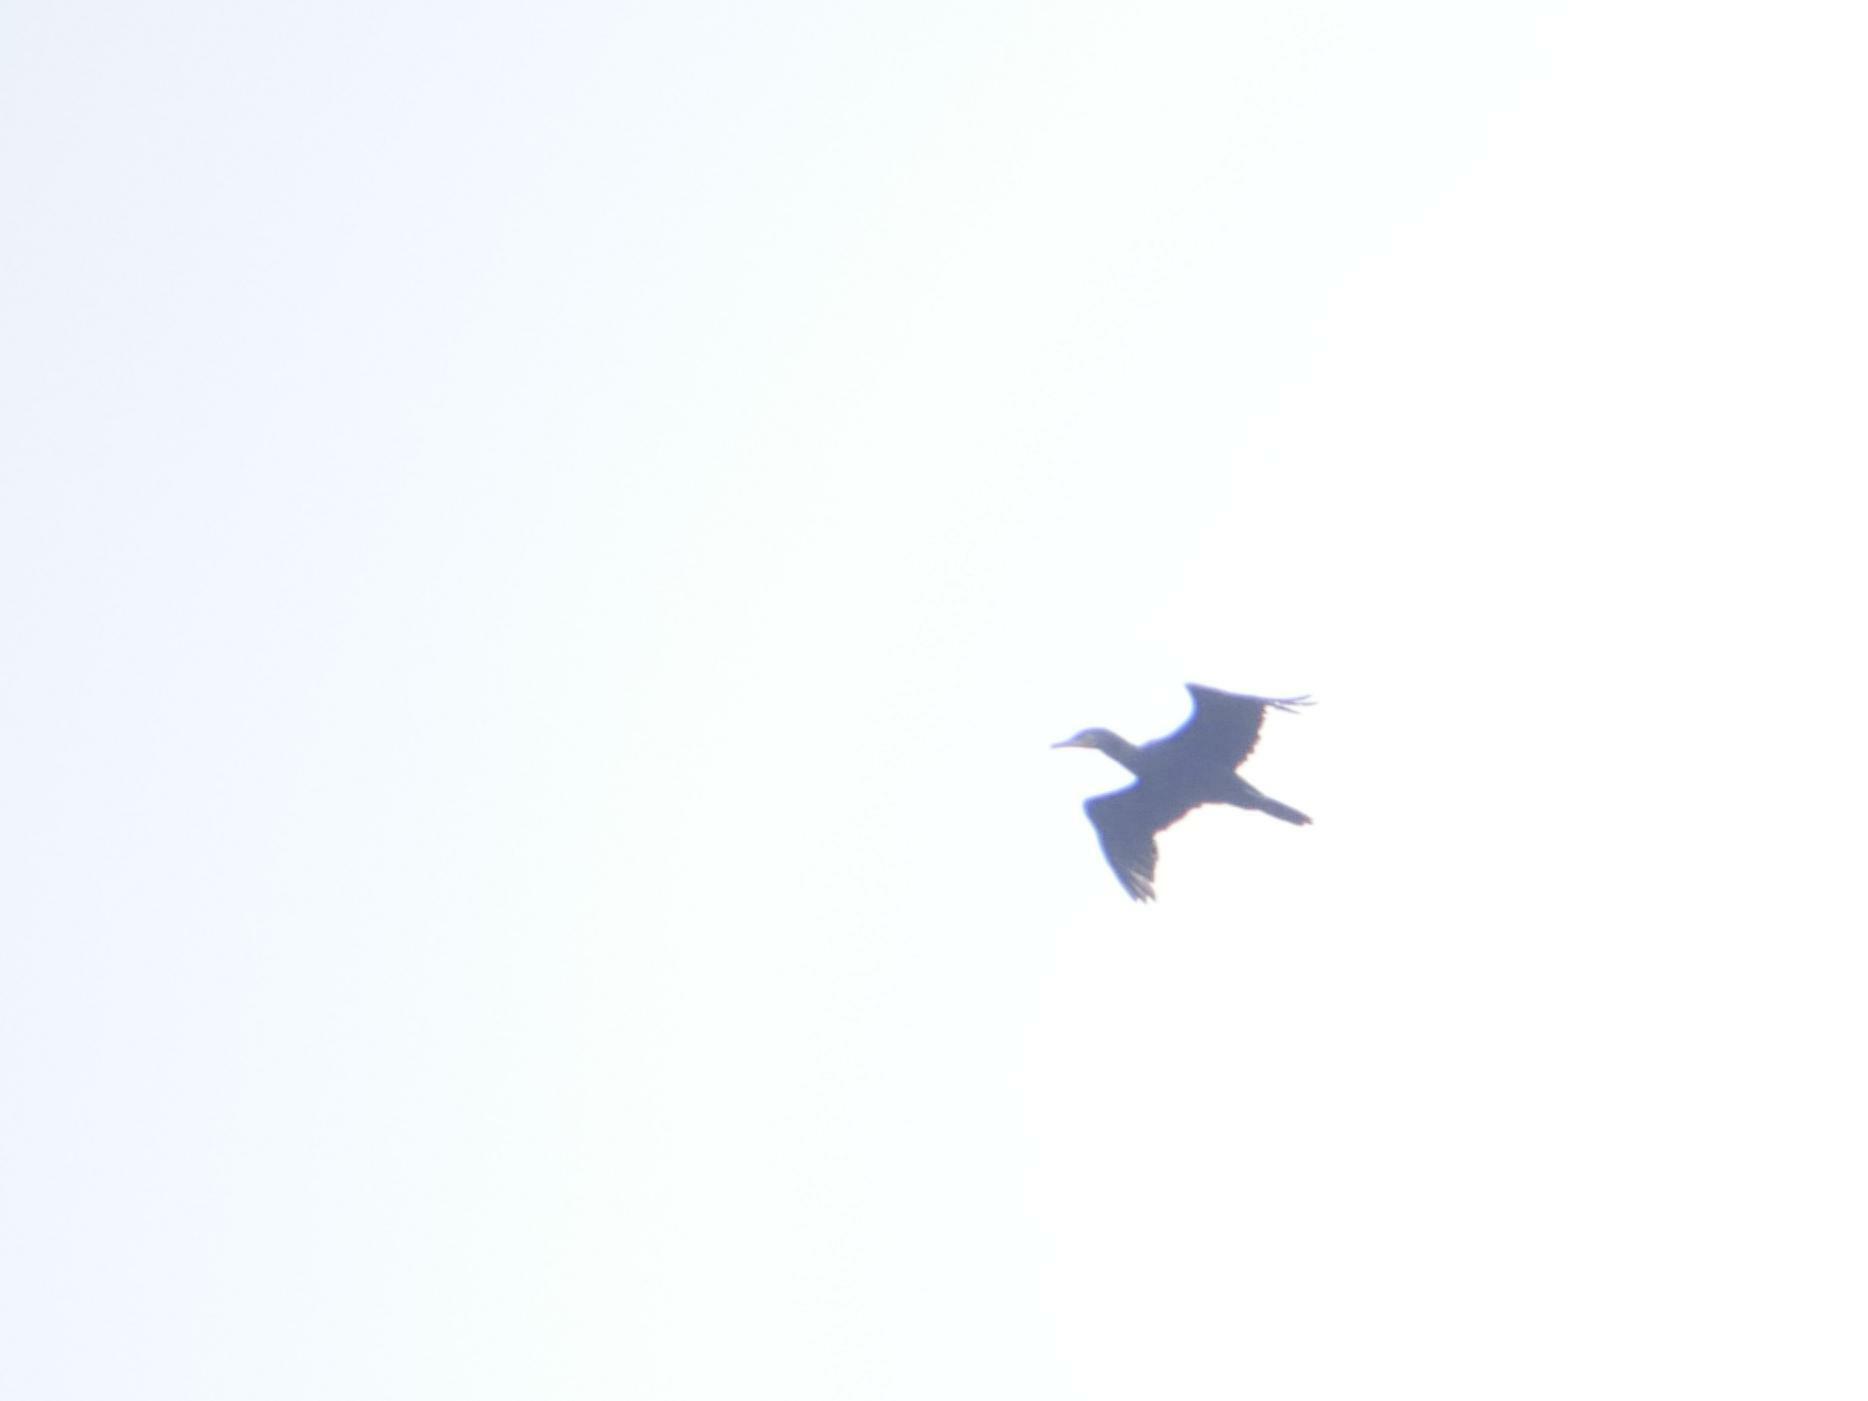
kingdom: Animalia
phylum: Chordata
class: Aves
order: Suliformes
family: Phalacrocoracidae
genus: Phalacrocorax
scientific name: Phalacrocorax carbo
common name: Great cormorant
